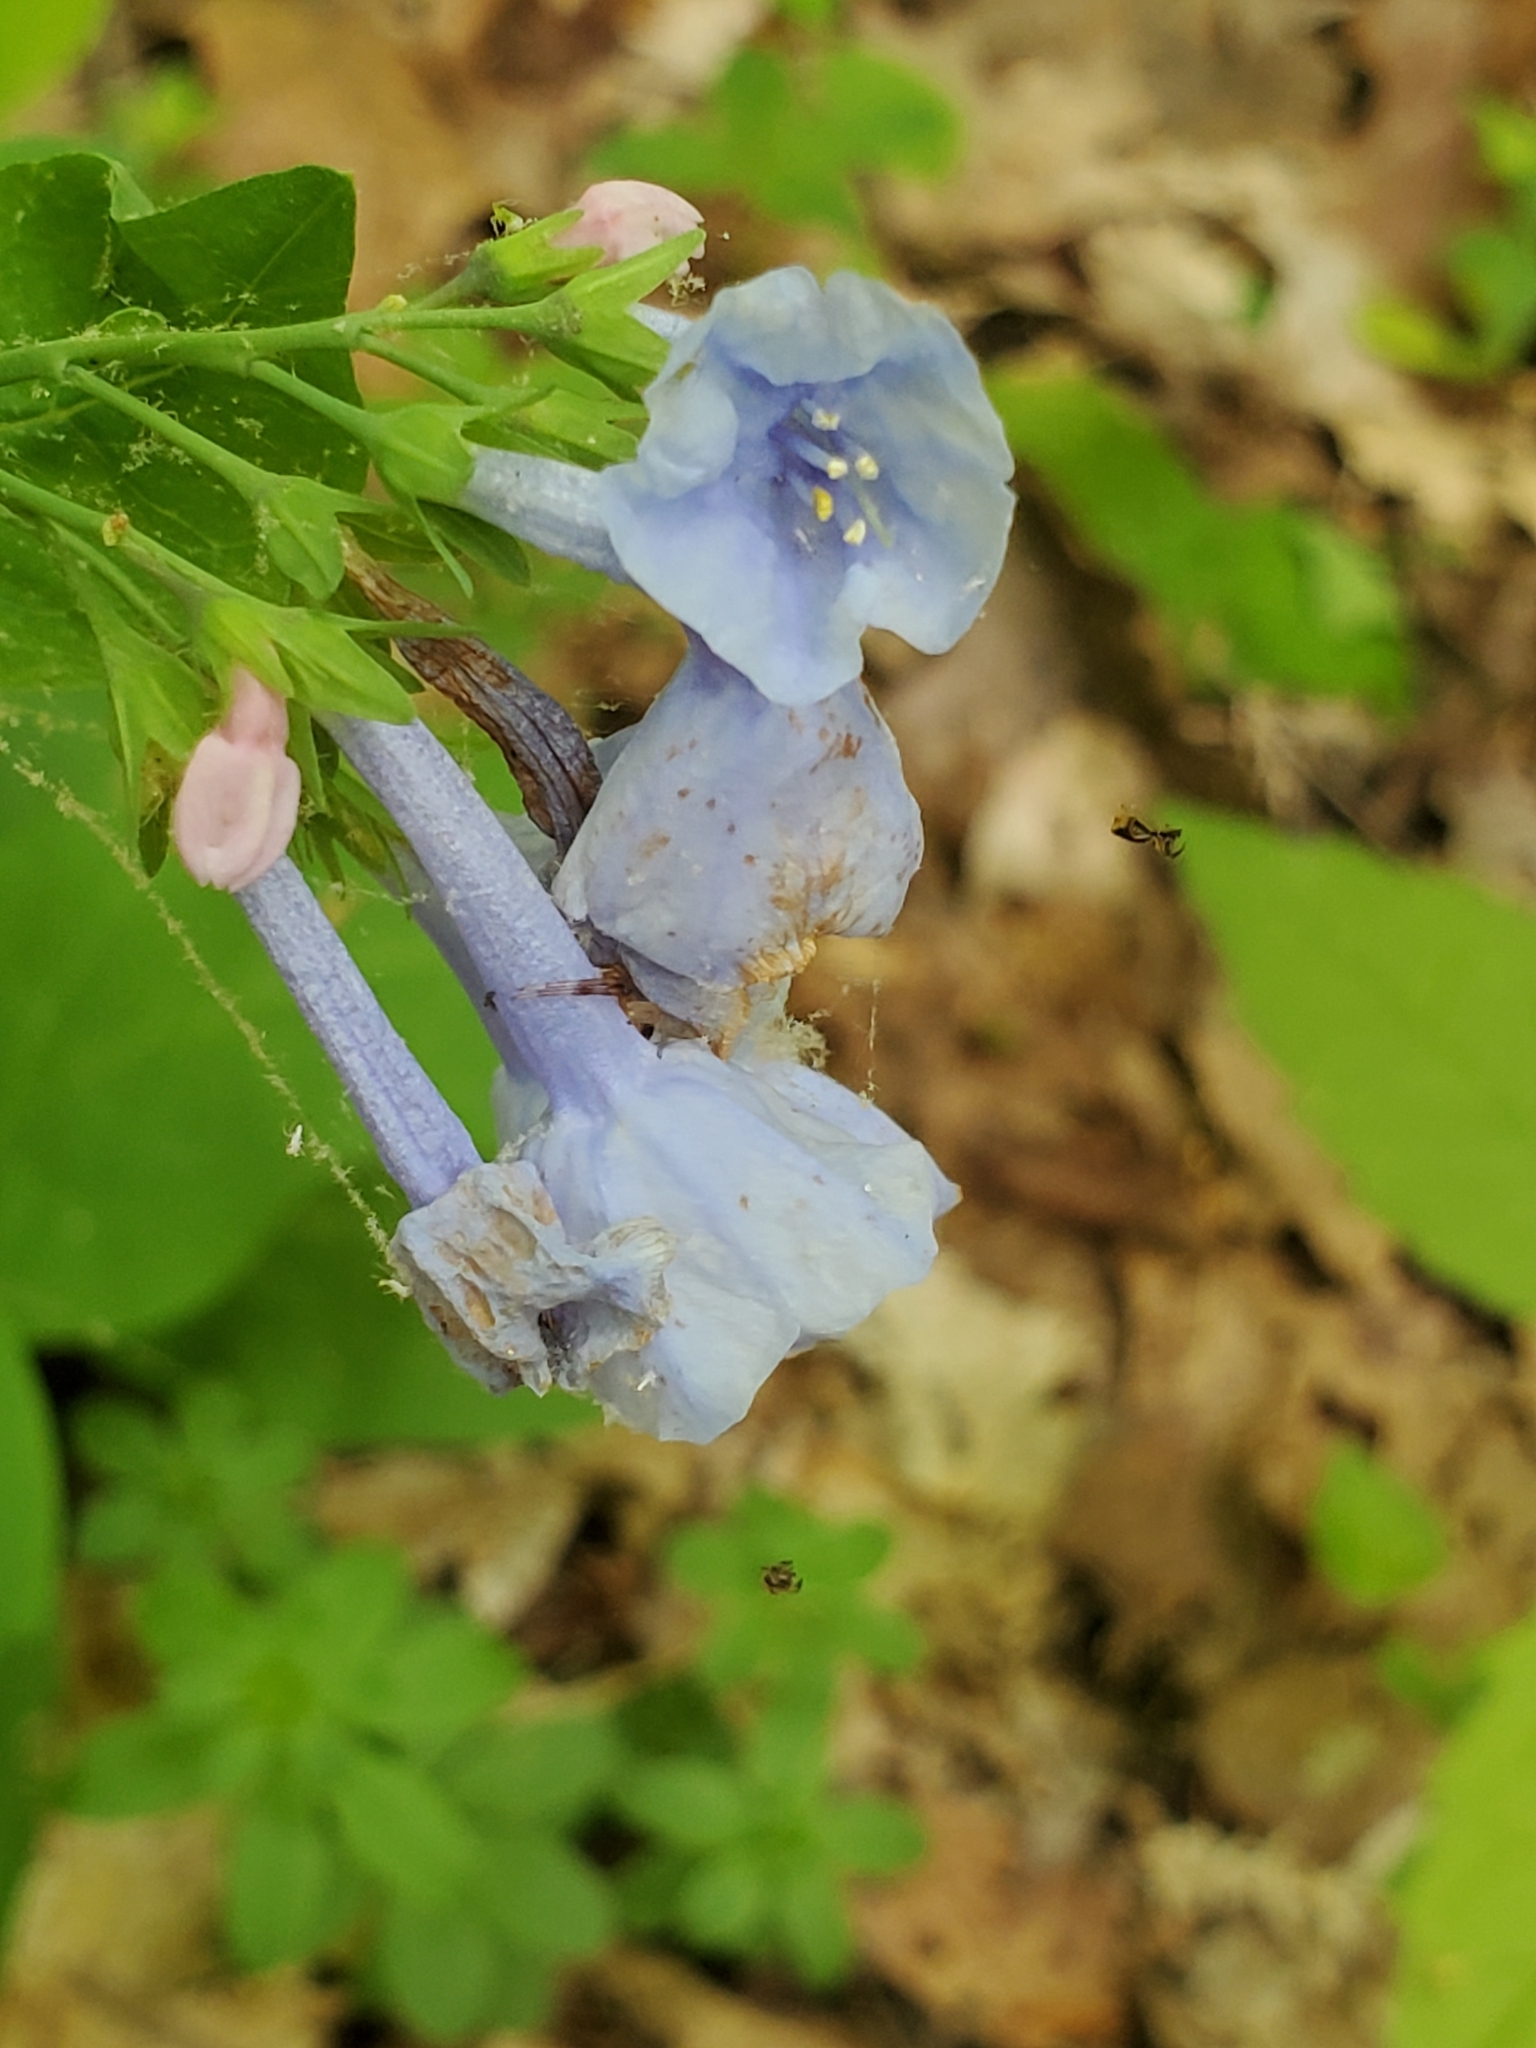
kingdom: Plantae
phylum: Tracheophyta
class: Magnoliopsida
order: Boraginales
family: Boraginaceae
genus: Mertensia
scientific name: Mertensia virginica
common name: Virginia bluebells
